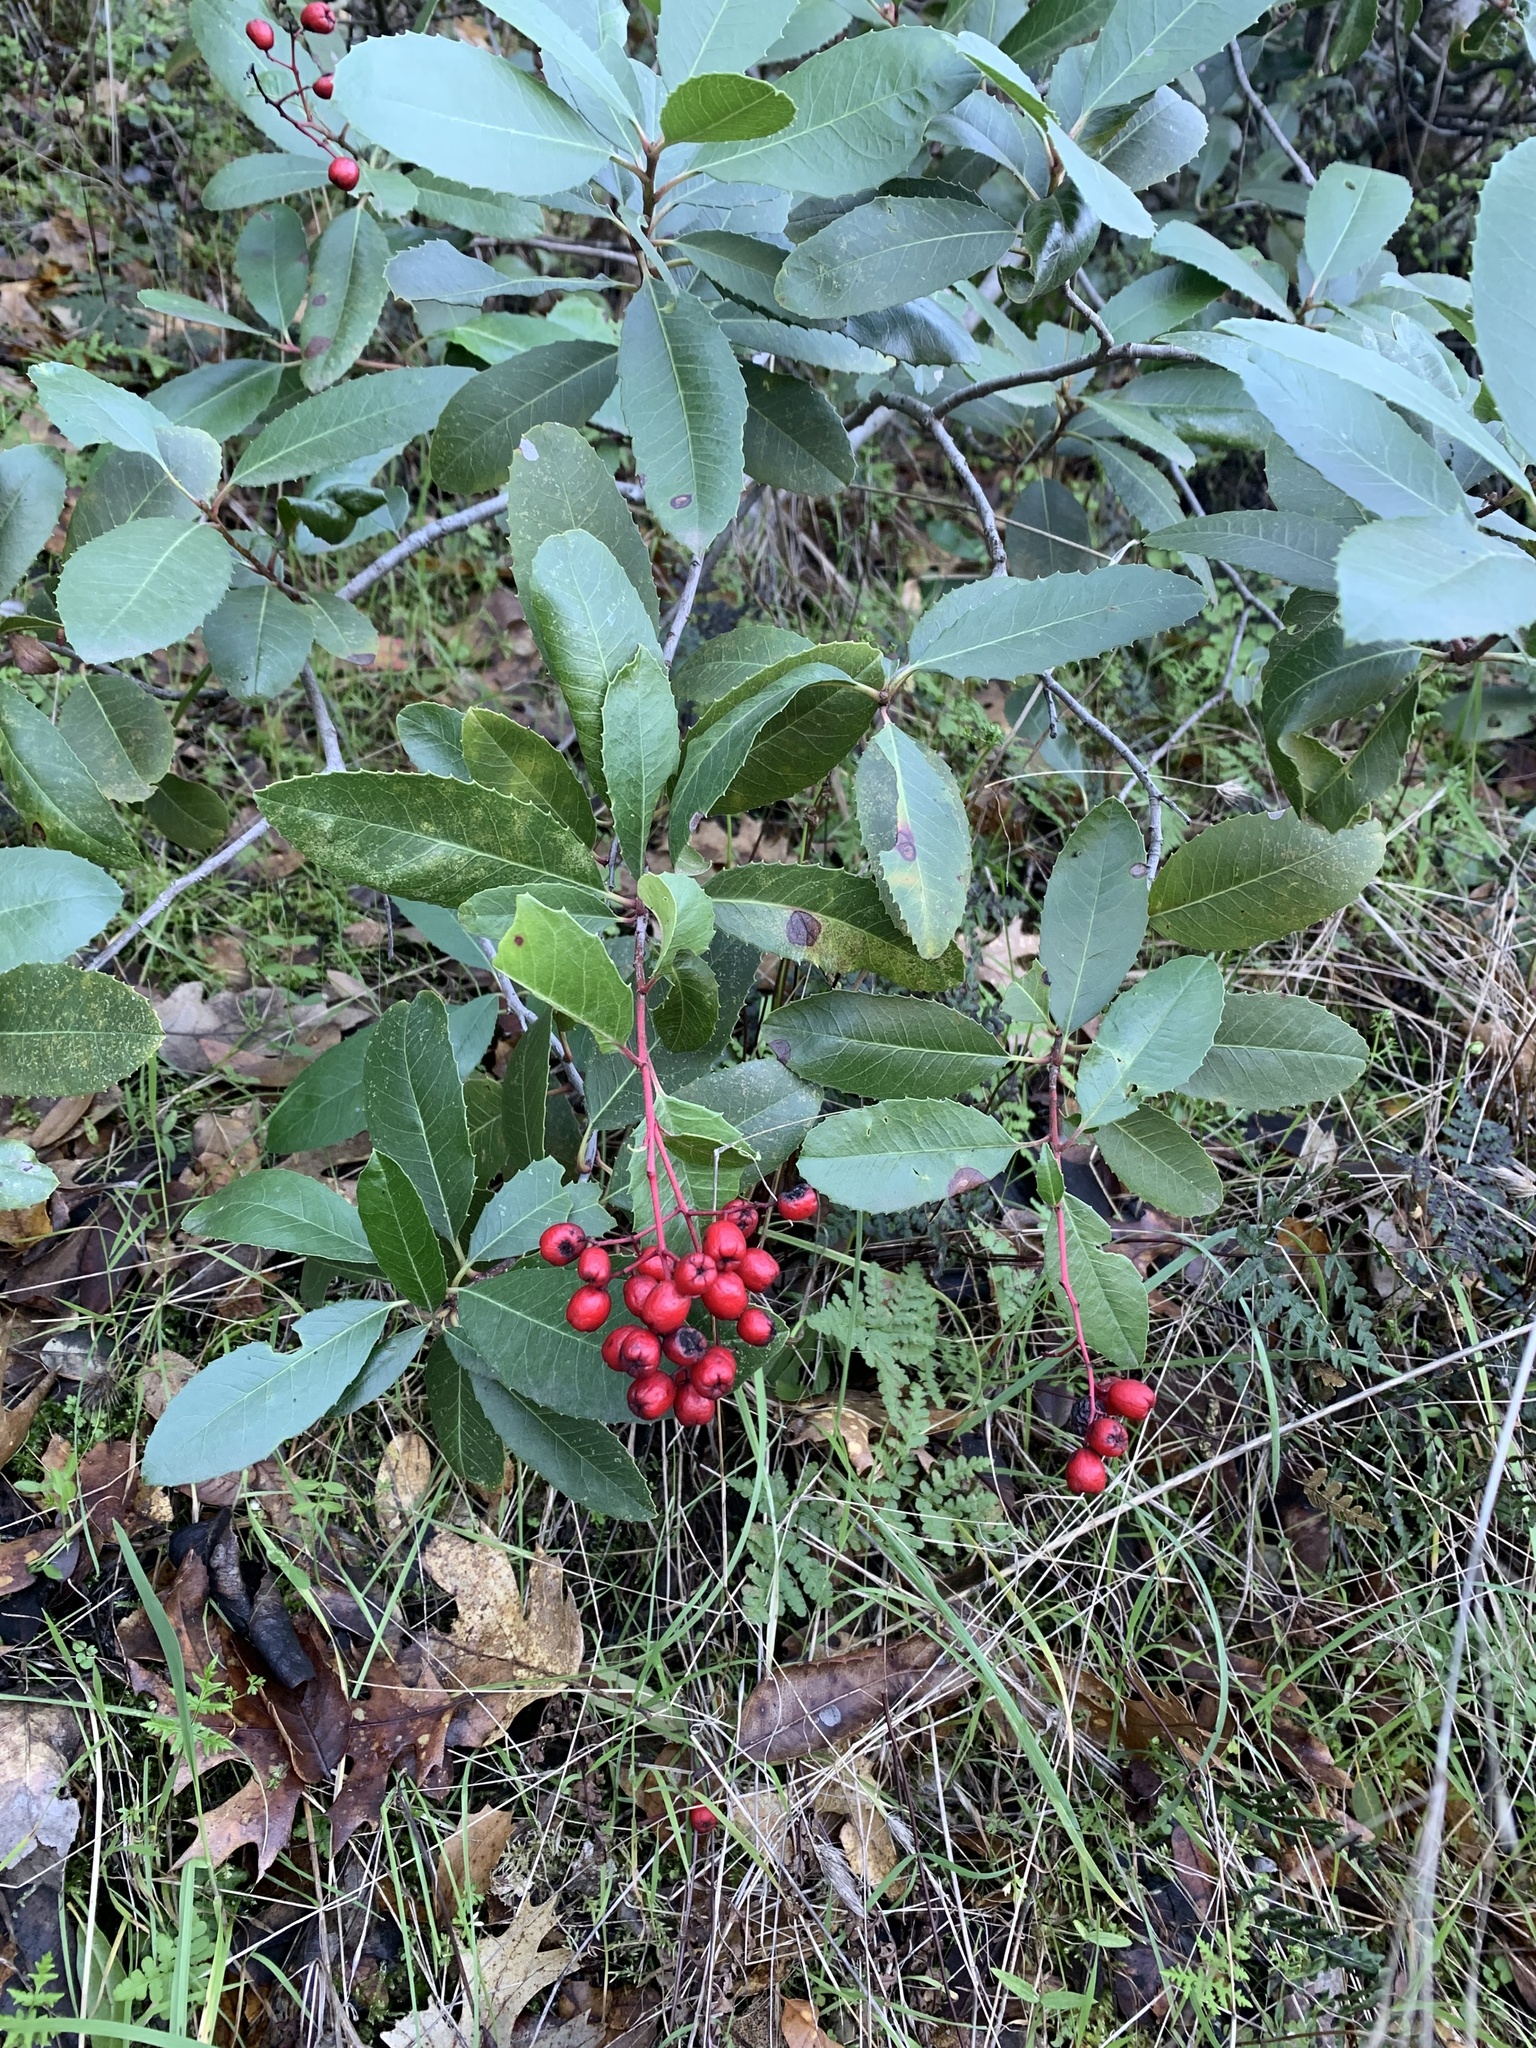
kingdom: Plantae
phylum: Tracheophyta
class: Magnoliopsida
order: Rosales
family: Rosaceae
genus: Heteromeles
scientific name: Heteromeles arbutifolia
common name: California-holly
